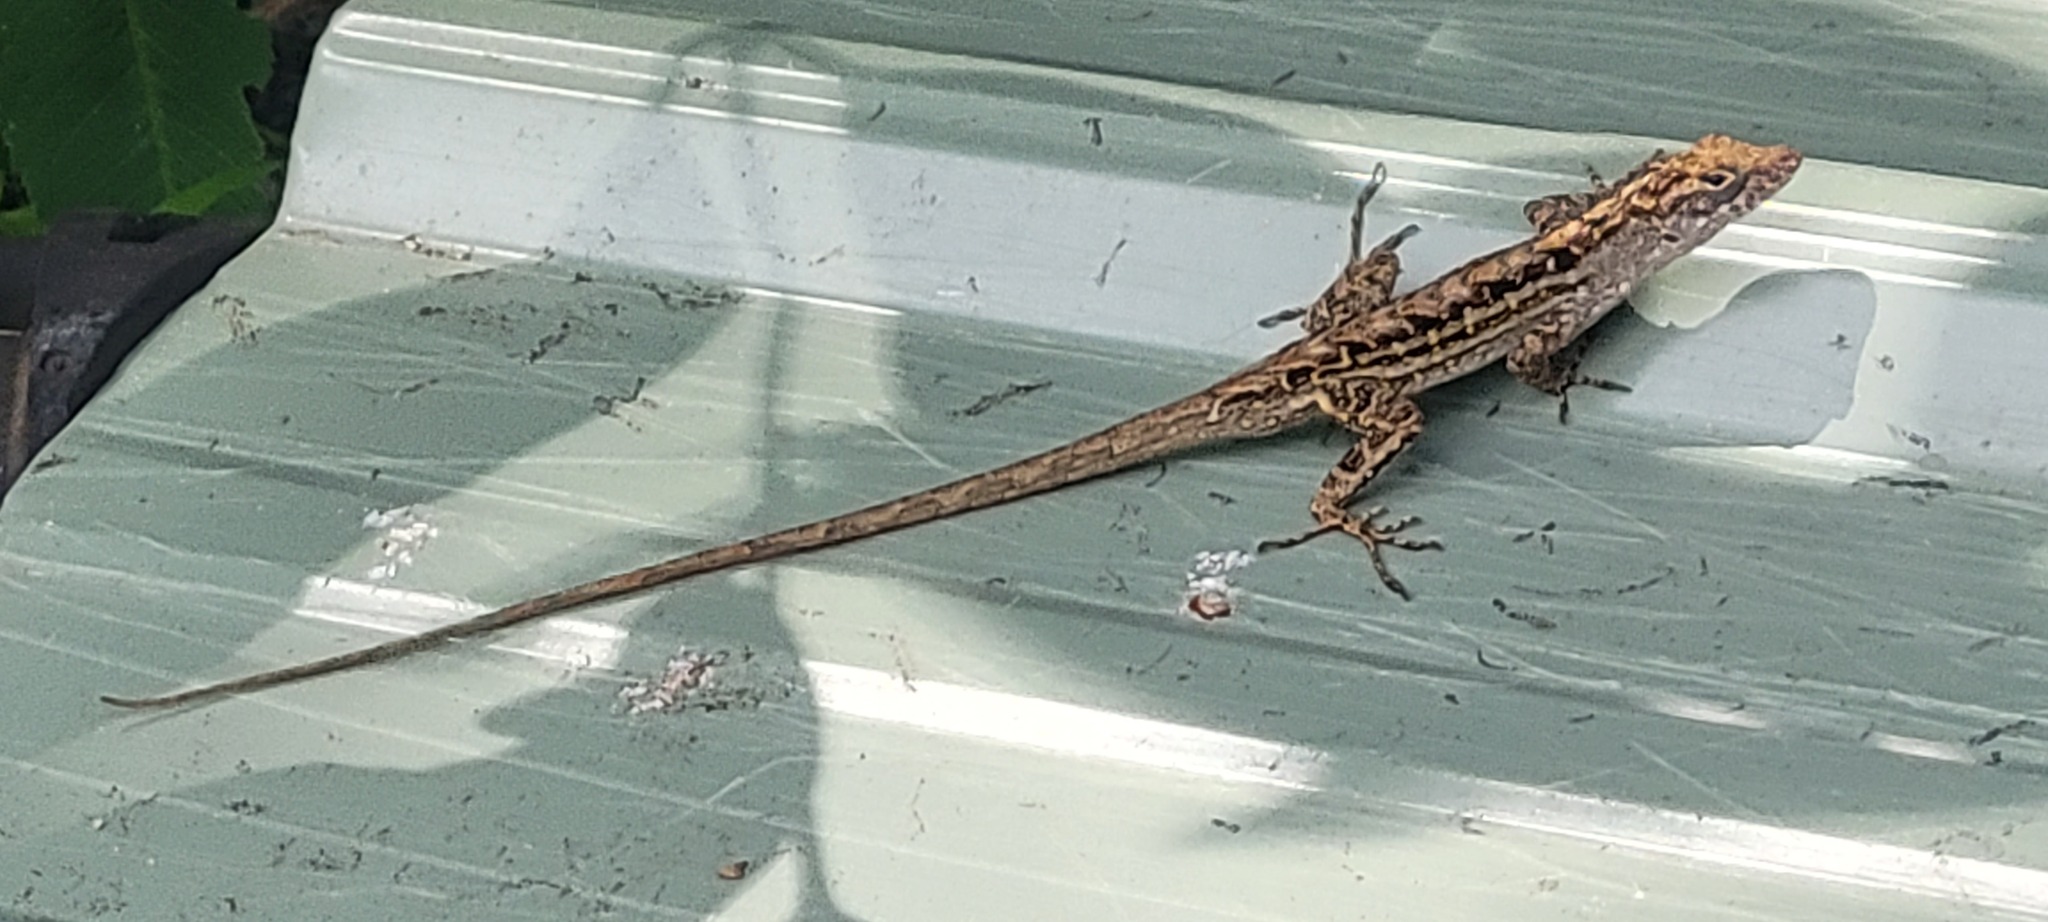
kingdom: Animalia
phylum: Chordata
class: Squamata
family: Dactyloidae
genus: Anolis
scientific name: Anolis sagrei
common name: Brown anole
